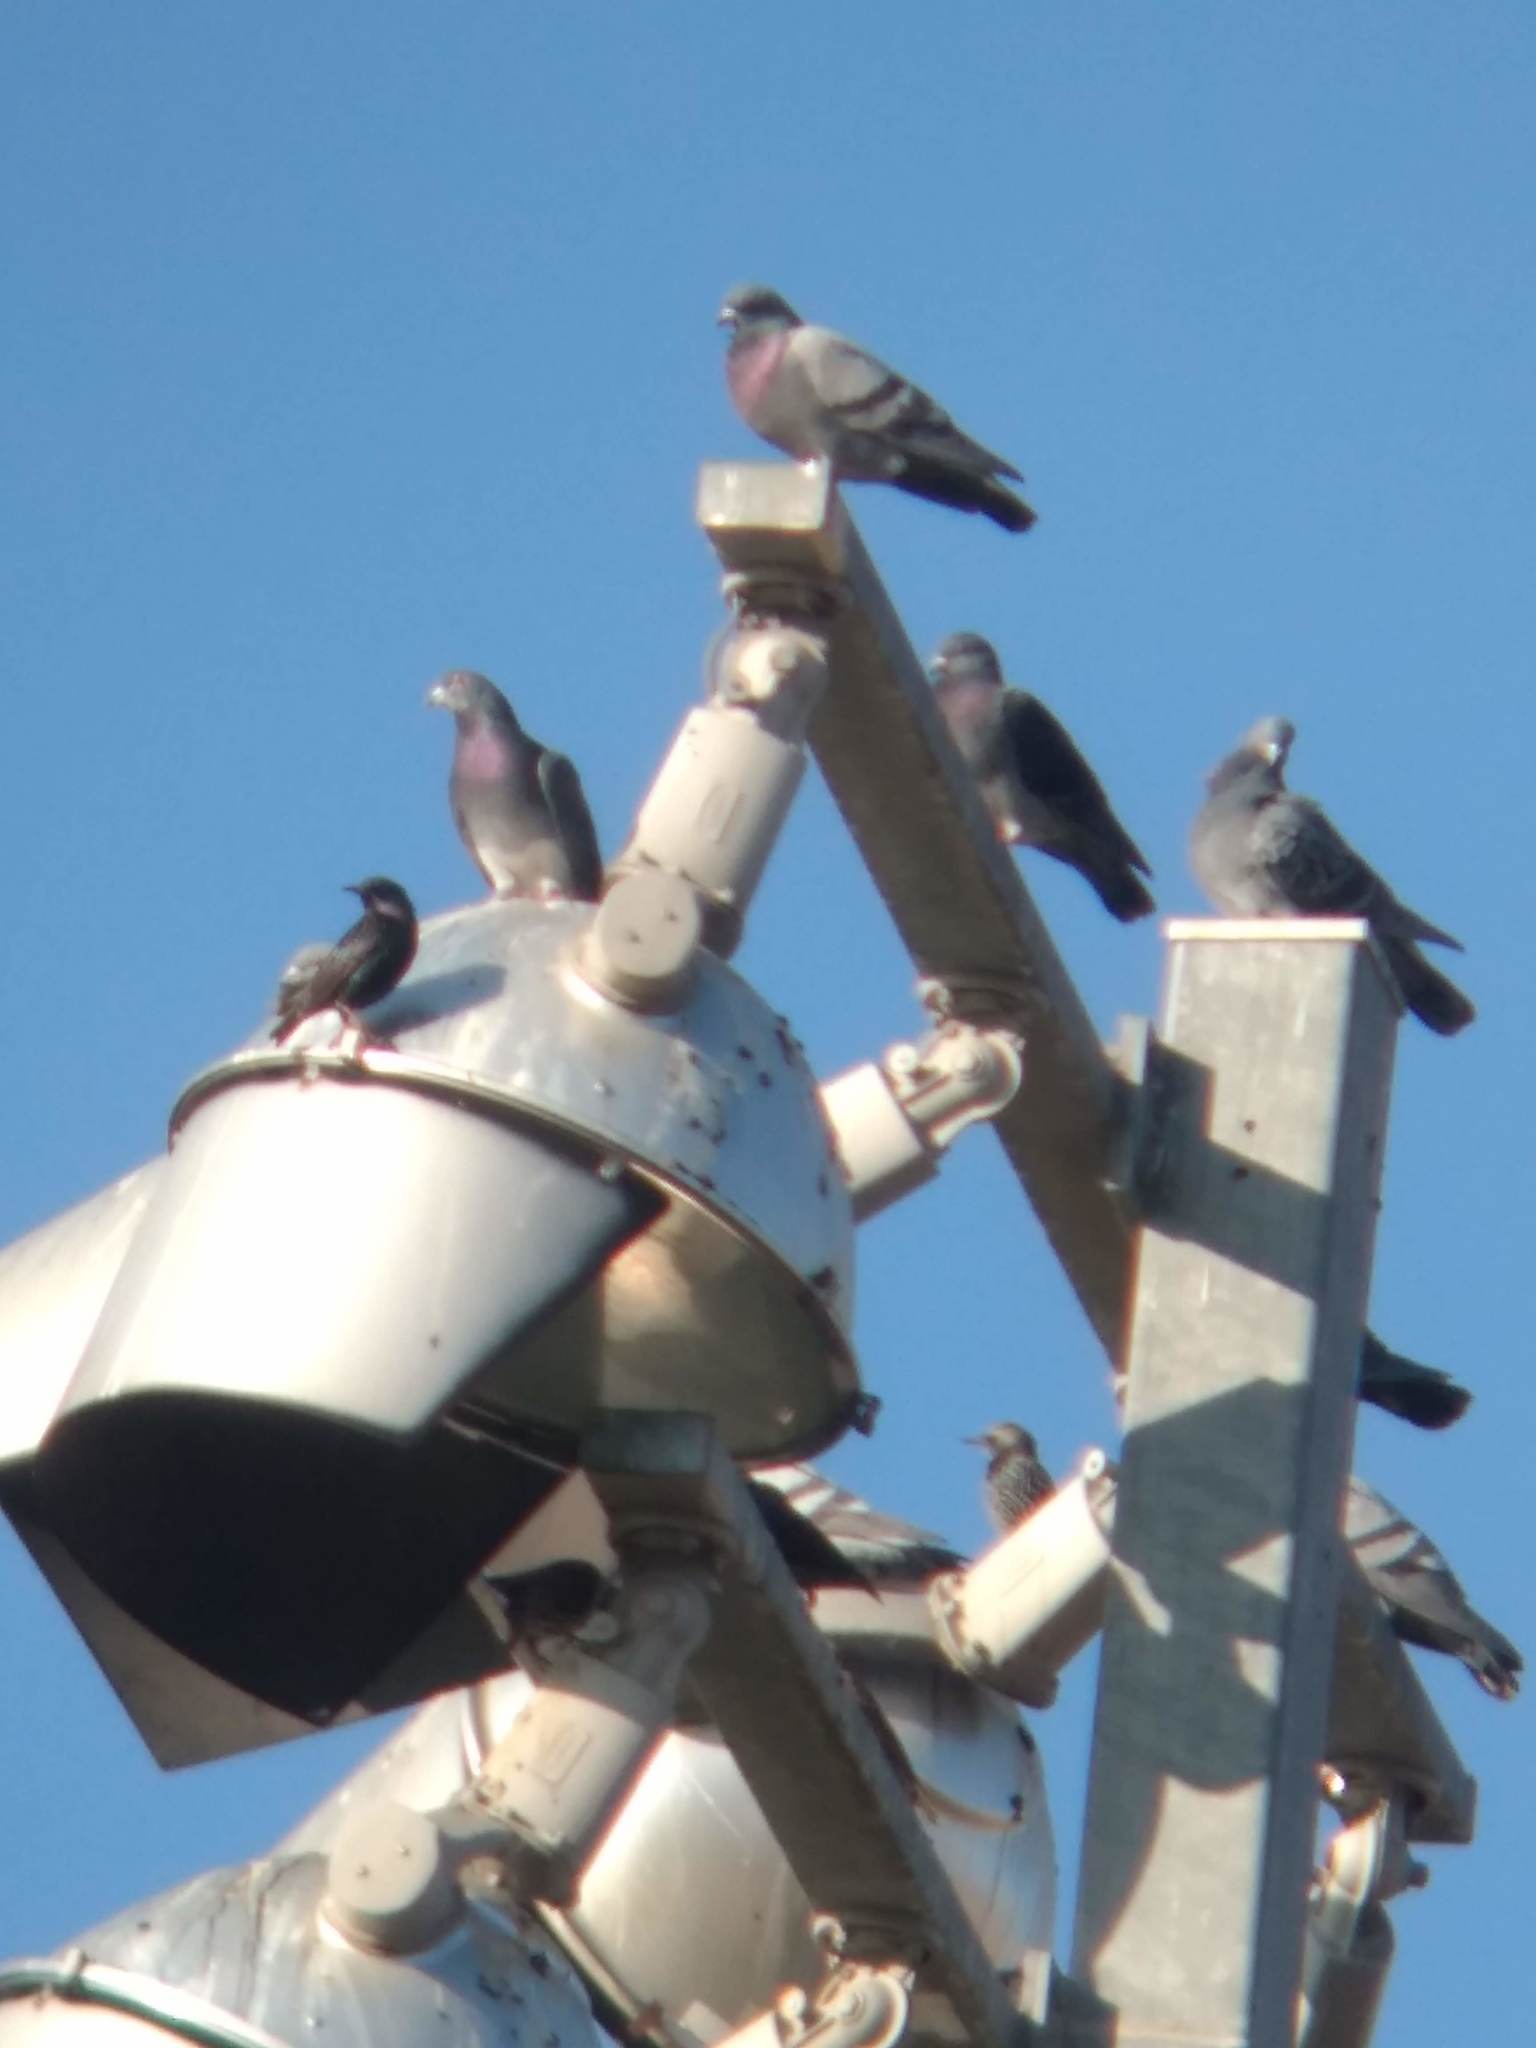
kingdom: Animalia
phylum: Chordata
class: Aves
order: Columbiformes
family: Columbidae
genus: Columba
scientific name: Columba livia
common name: Rock pigeon
